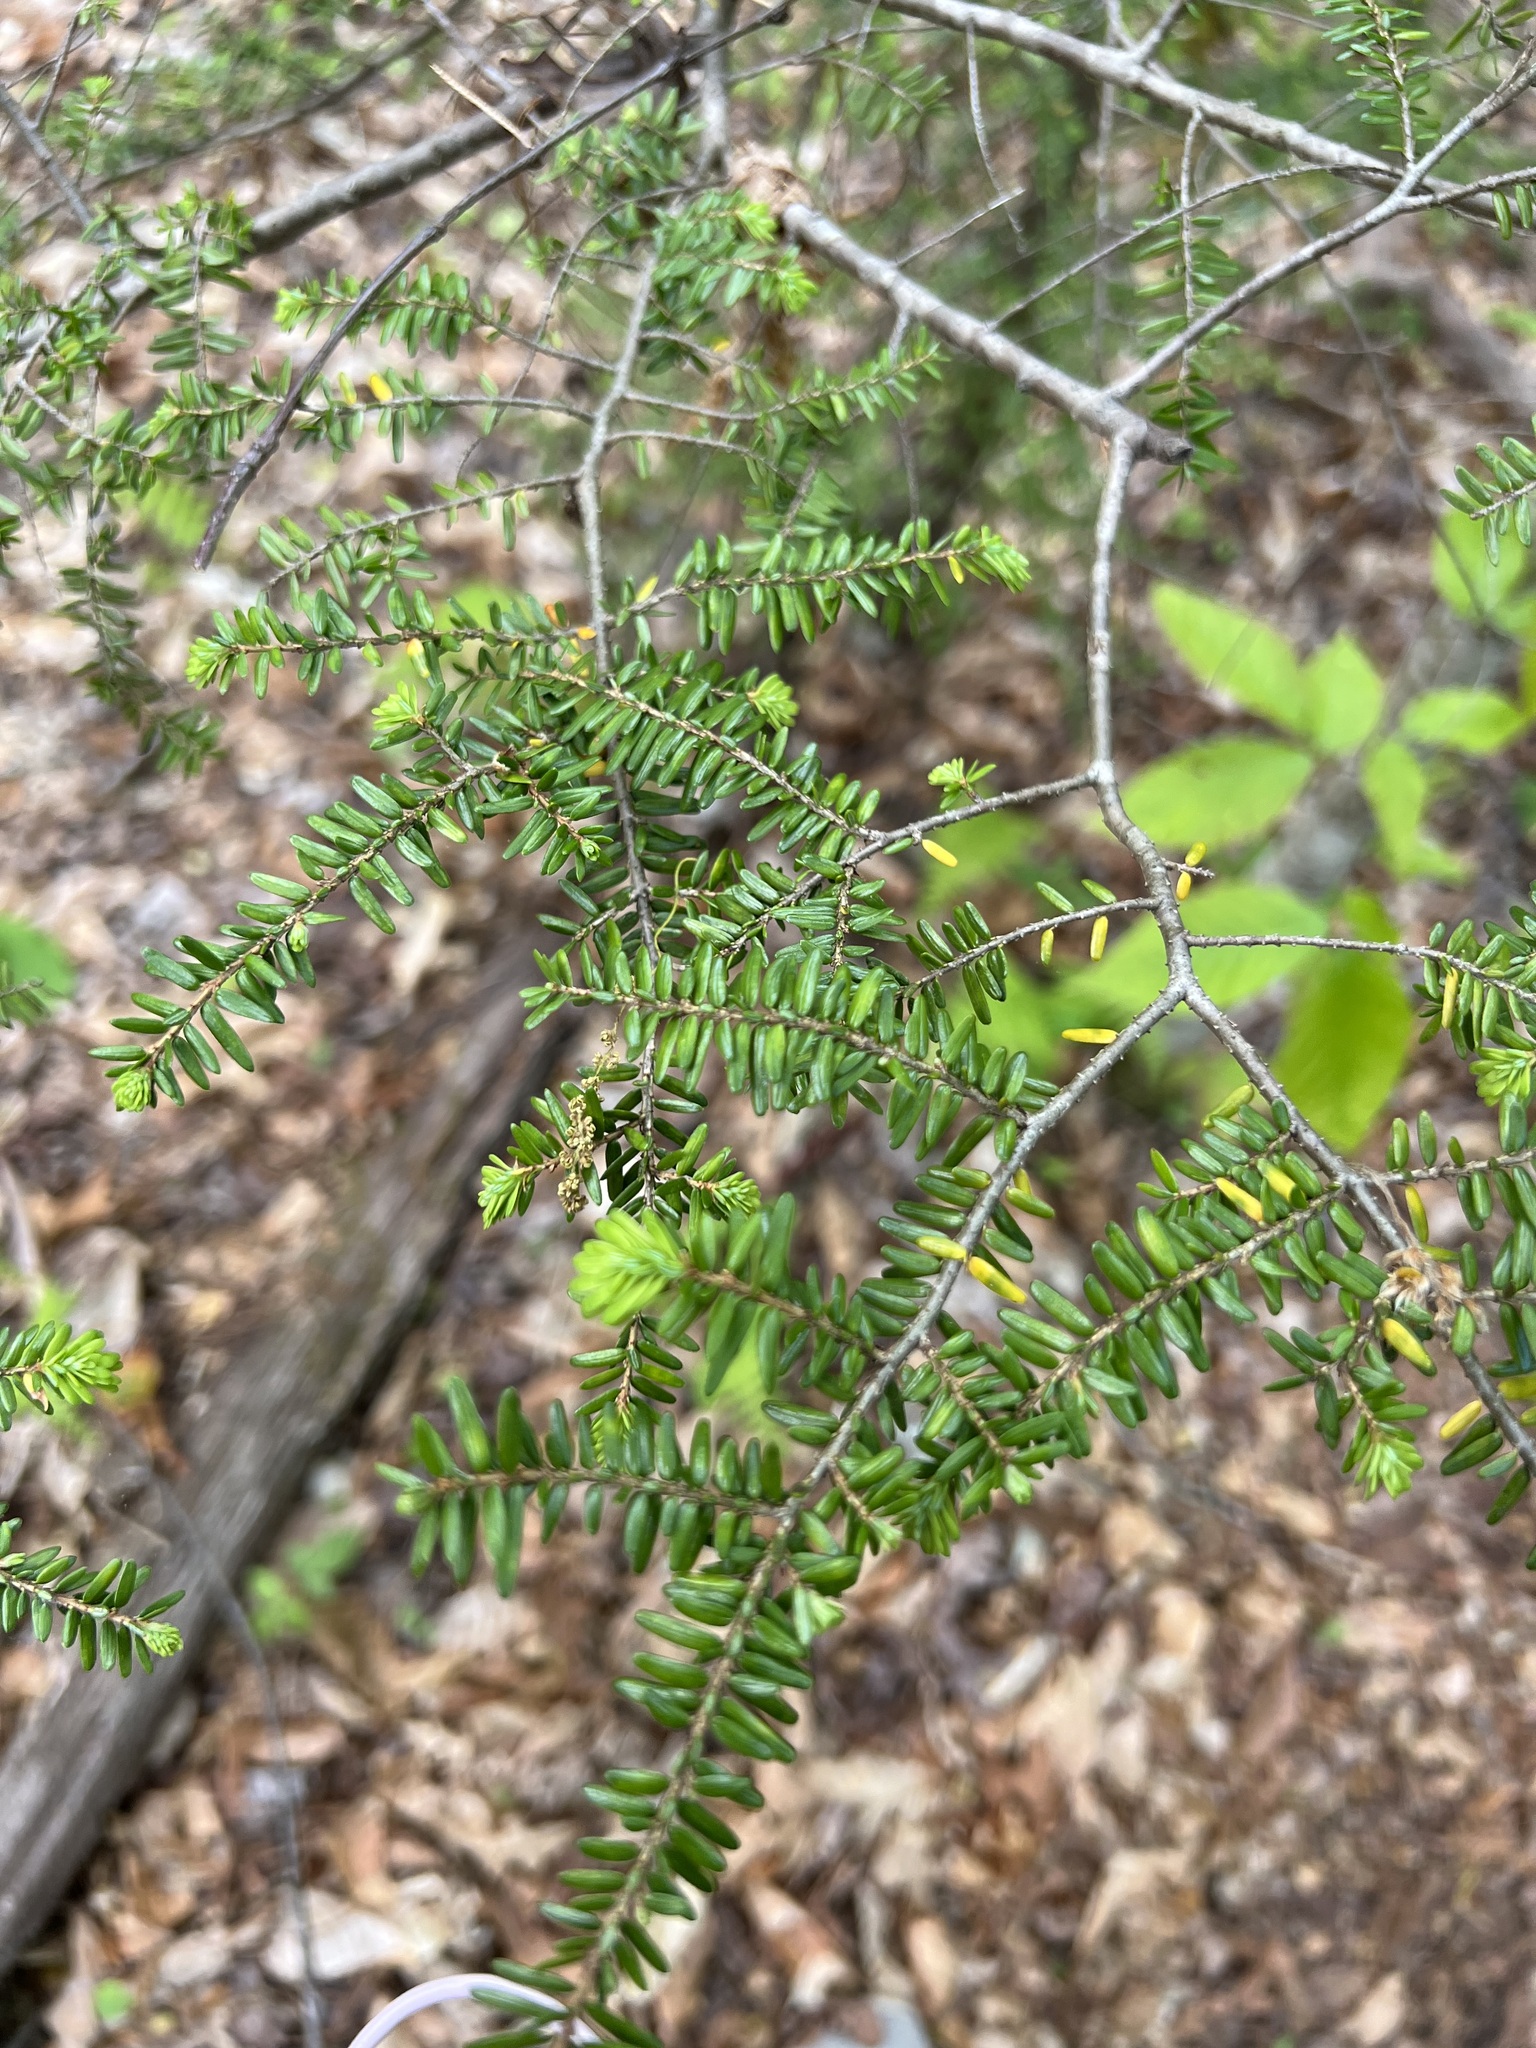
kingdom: Plantae
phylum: Tracheophyta
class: Pinopsida
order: Pinales
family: Pinaceae
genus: Tsuga
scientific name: Tsuga canadensis
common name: Eastern hemlock
